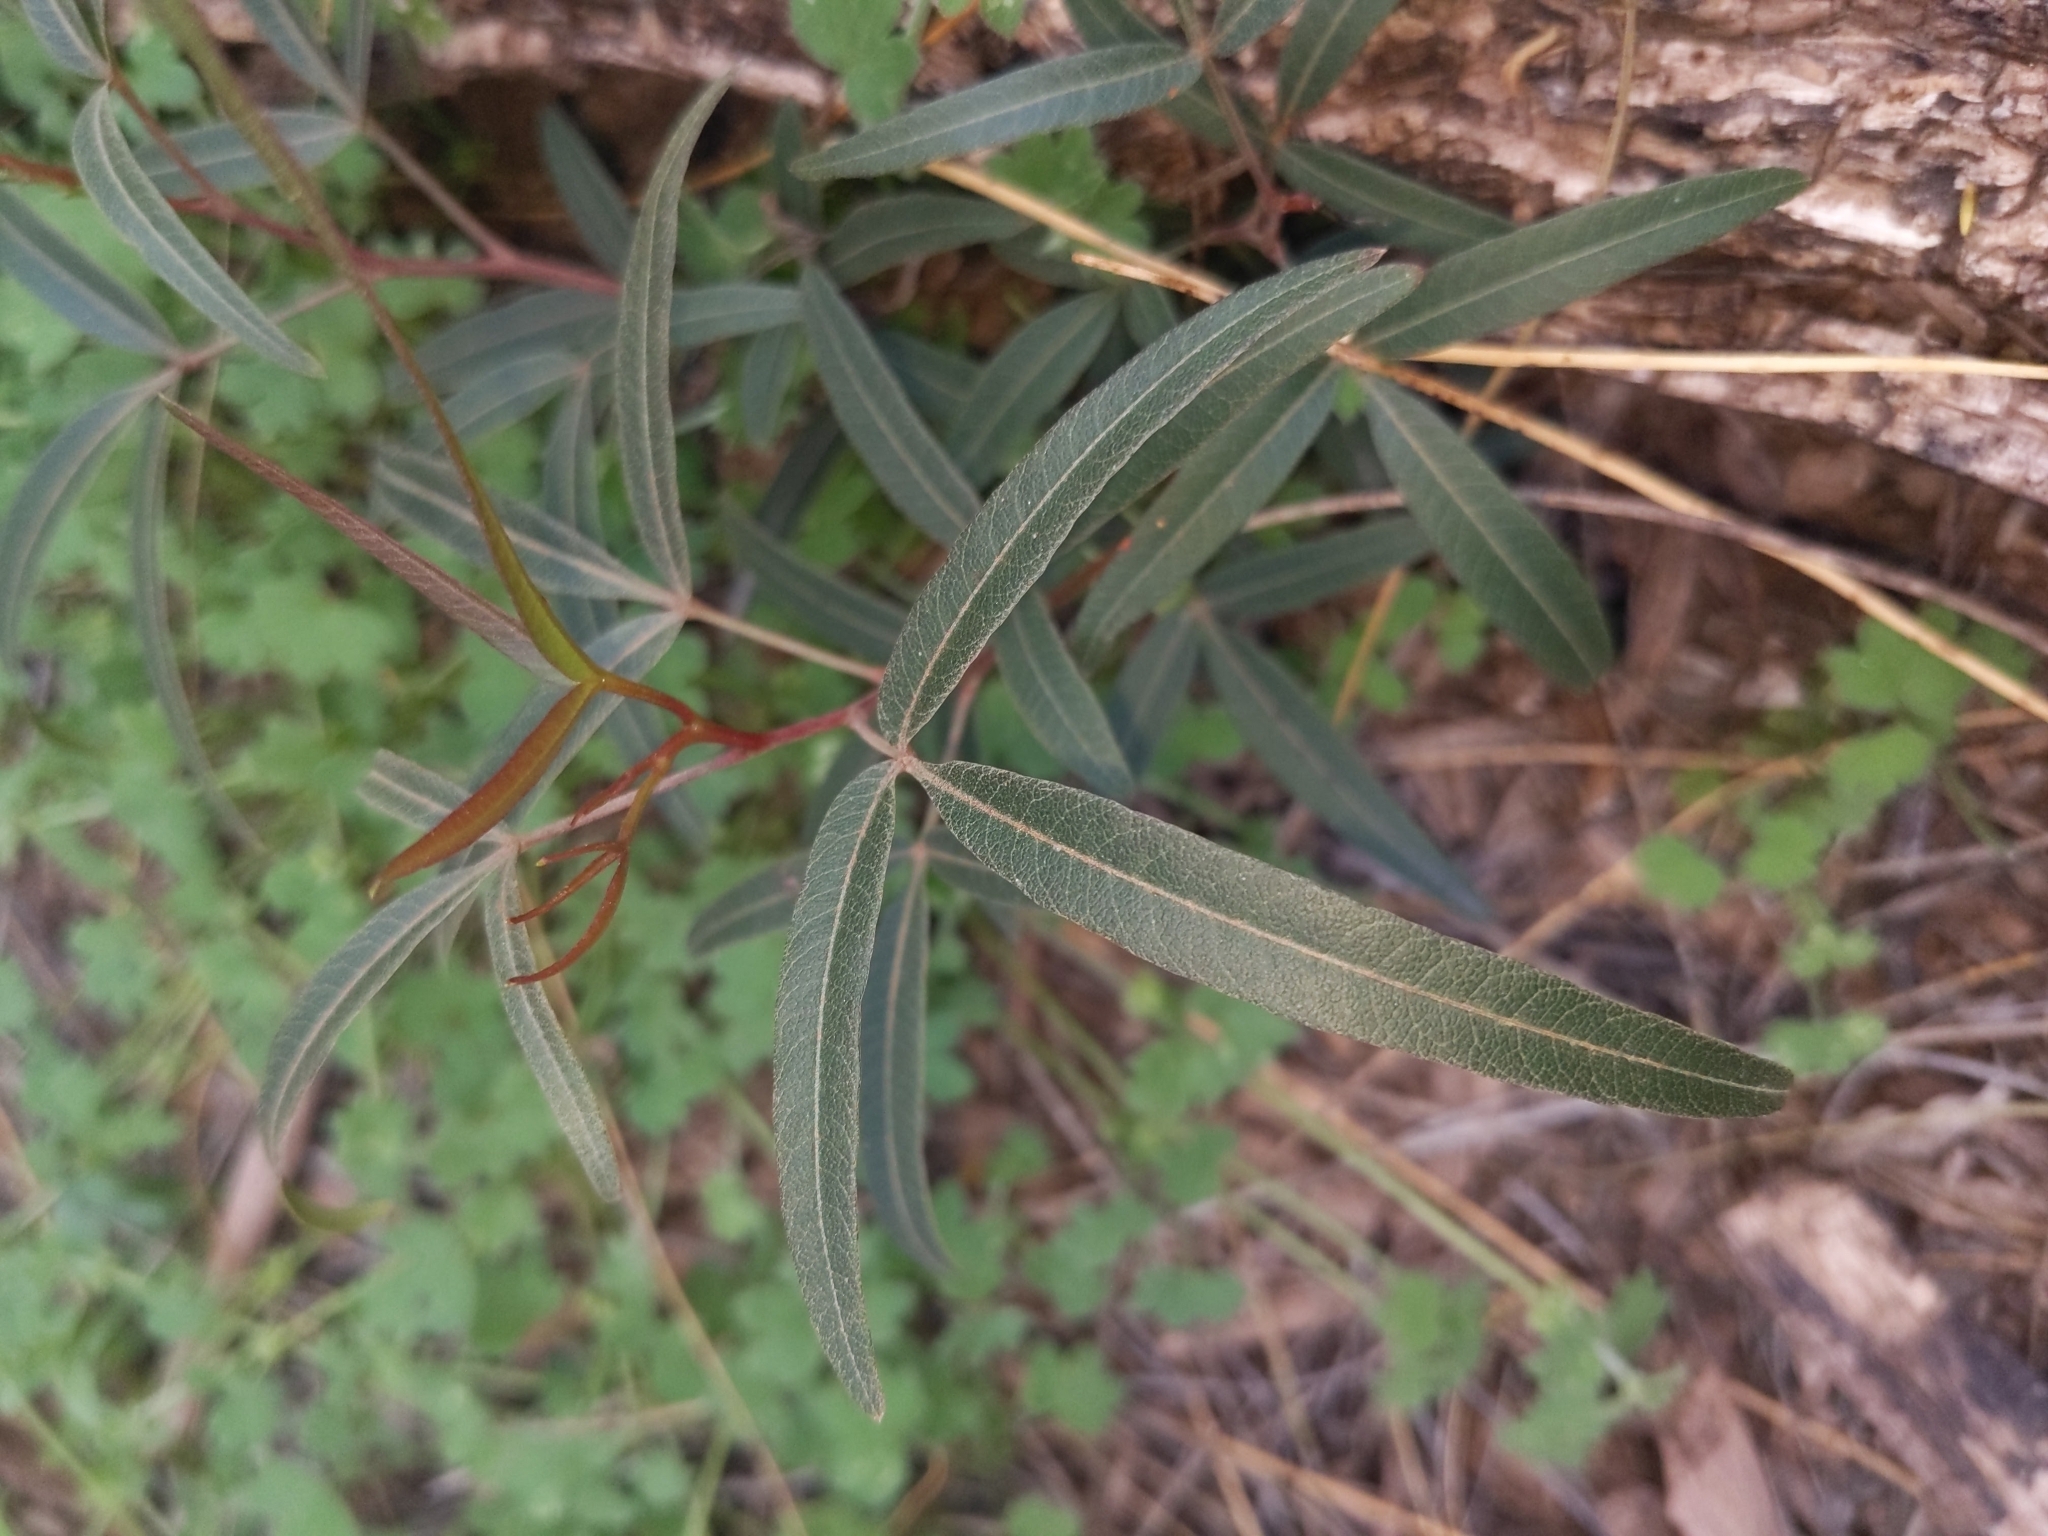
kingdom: Plantae
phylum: Tracheophyta
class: Magnoliopsida
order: Sapindales
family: Anacardiaceae
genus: Searsia
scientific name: Searsia lancea
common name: Cashew
